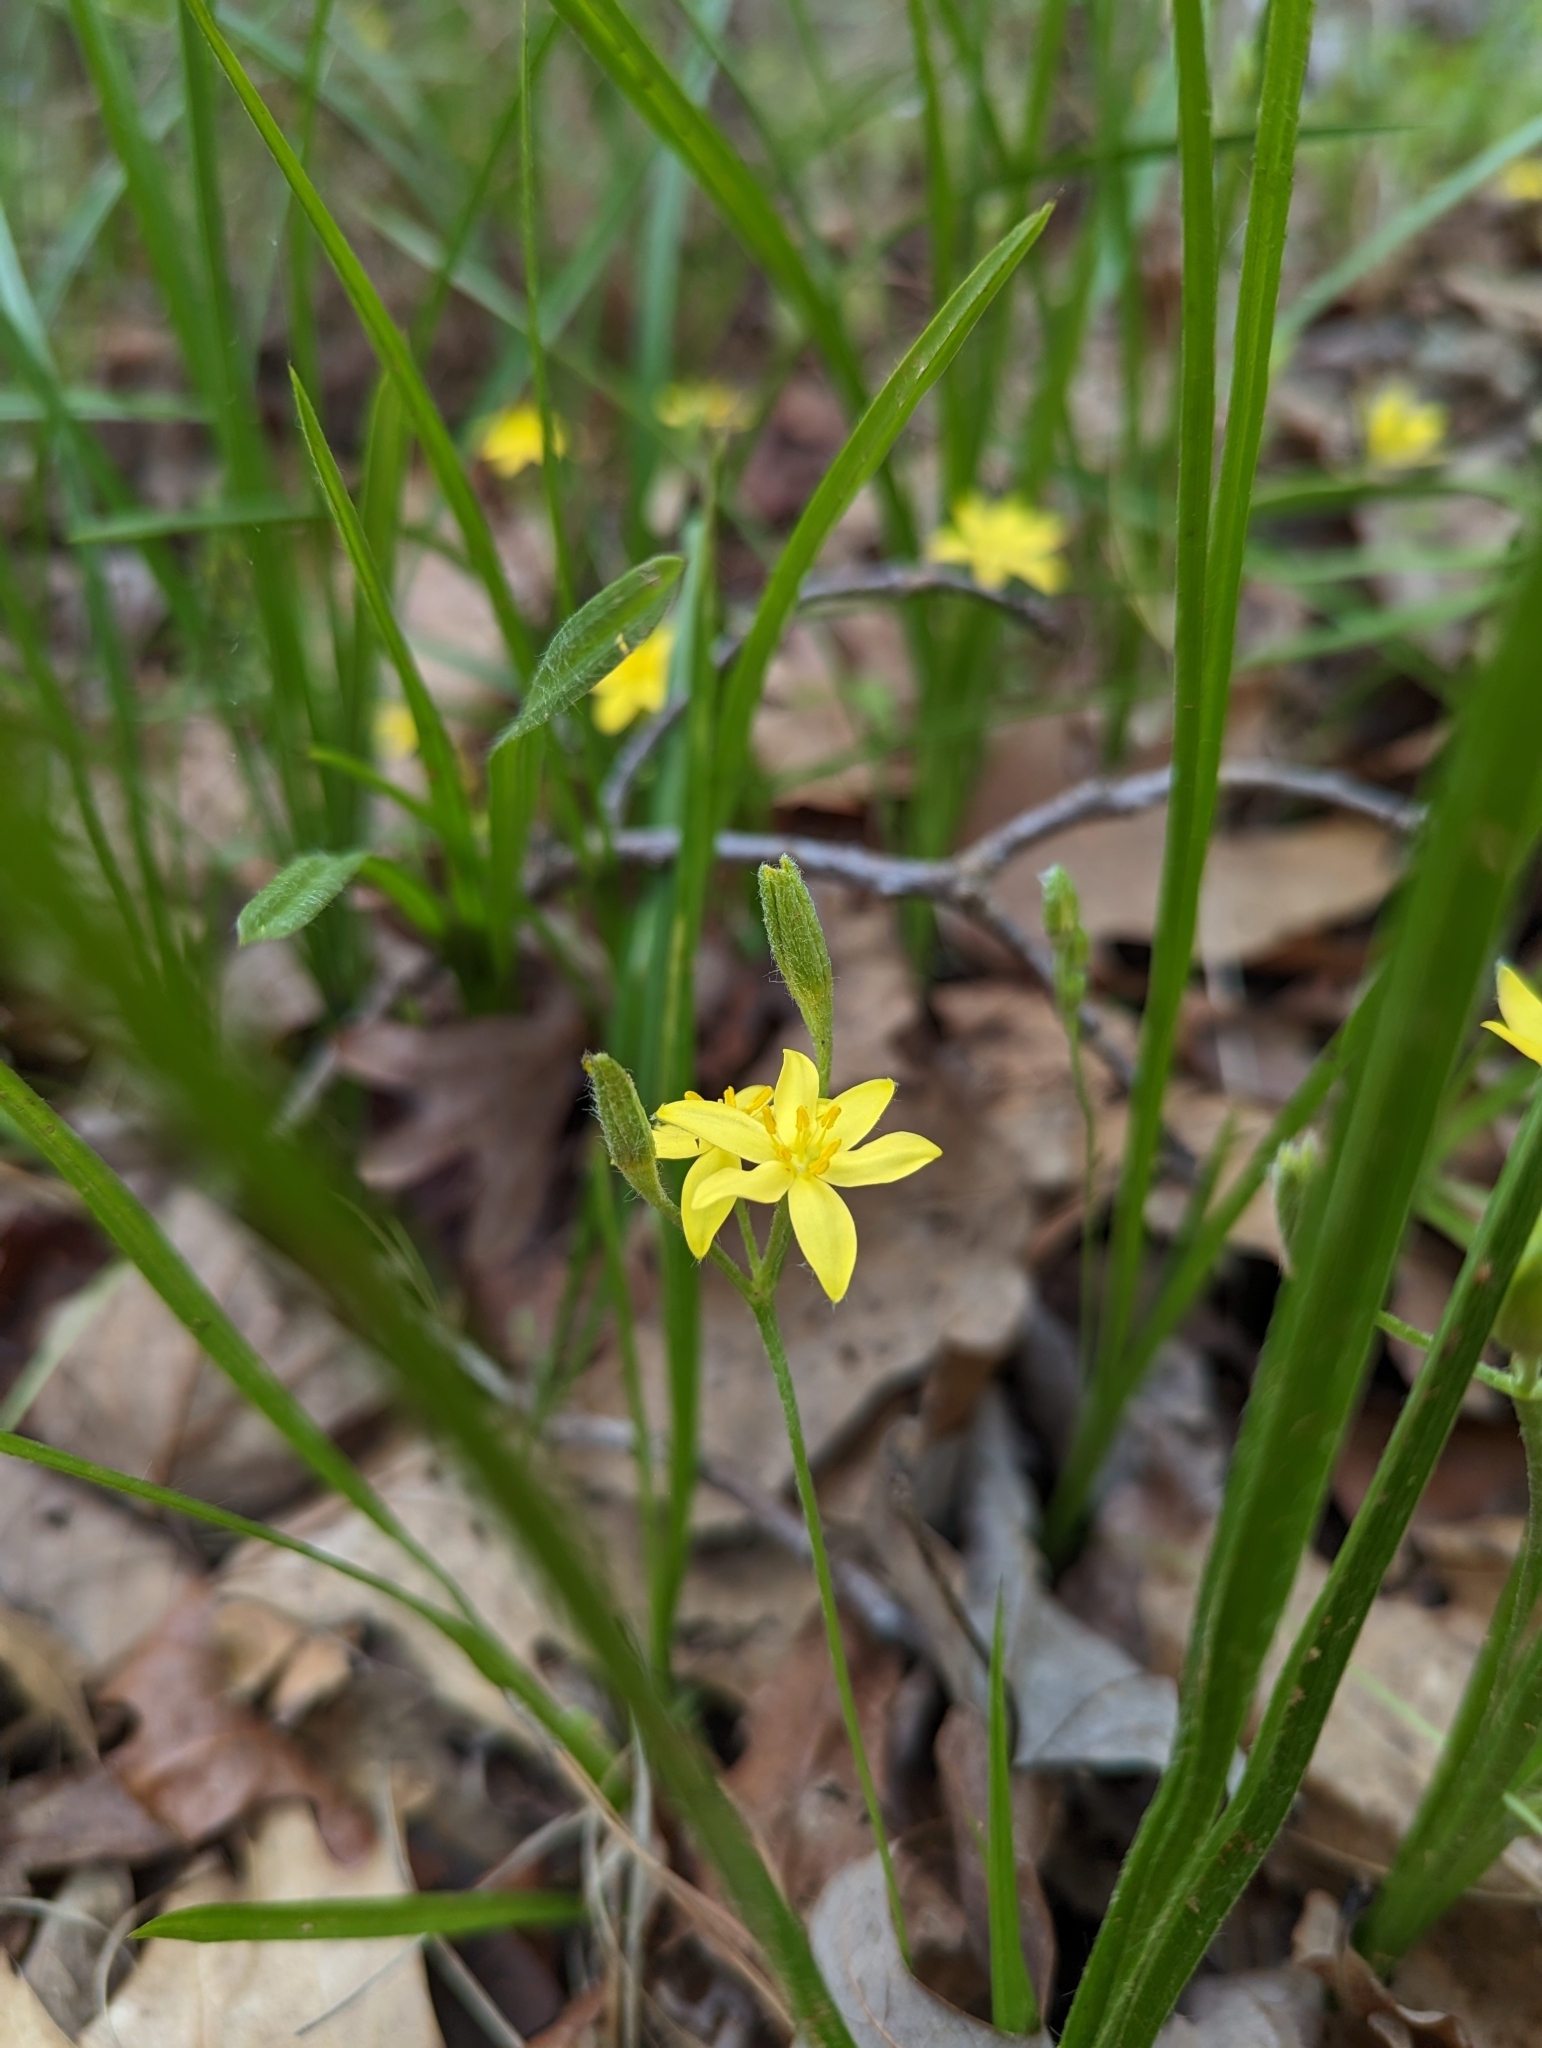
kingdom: Plantae
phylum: Tracheophyta
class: Liliopsida
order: Asparagales
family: Hypoxidaceae
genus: Hypoxis
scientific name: Hypoxis hirsuta
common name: Common goldstar
